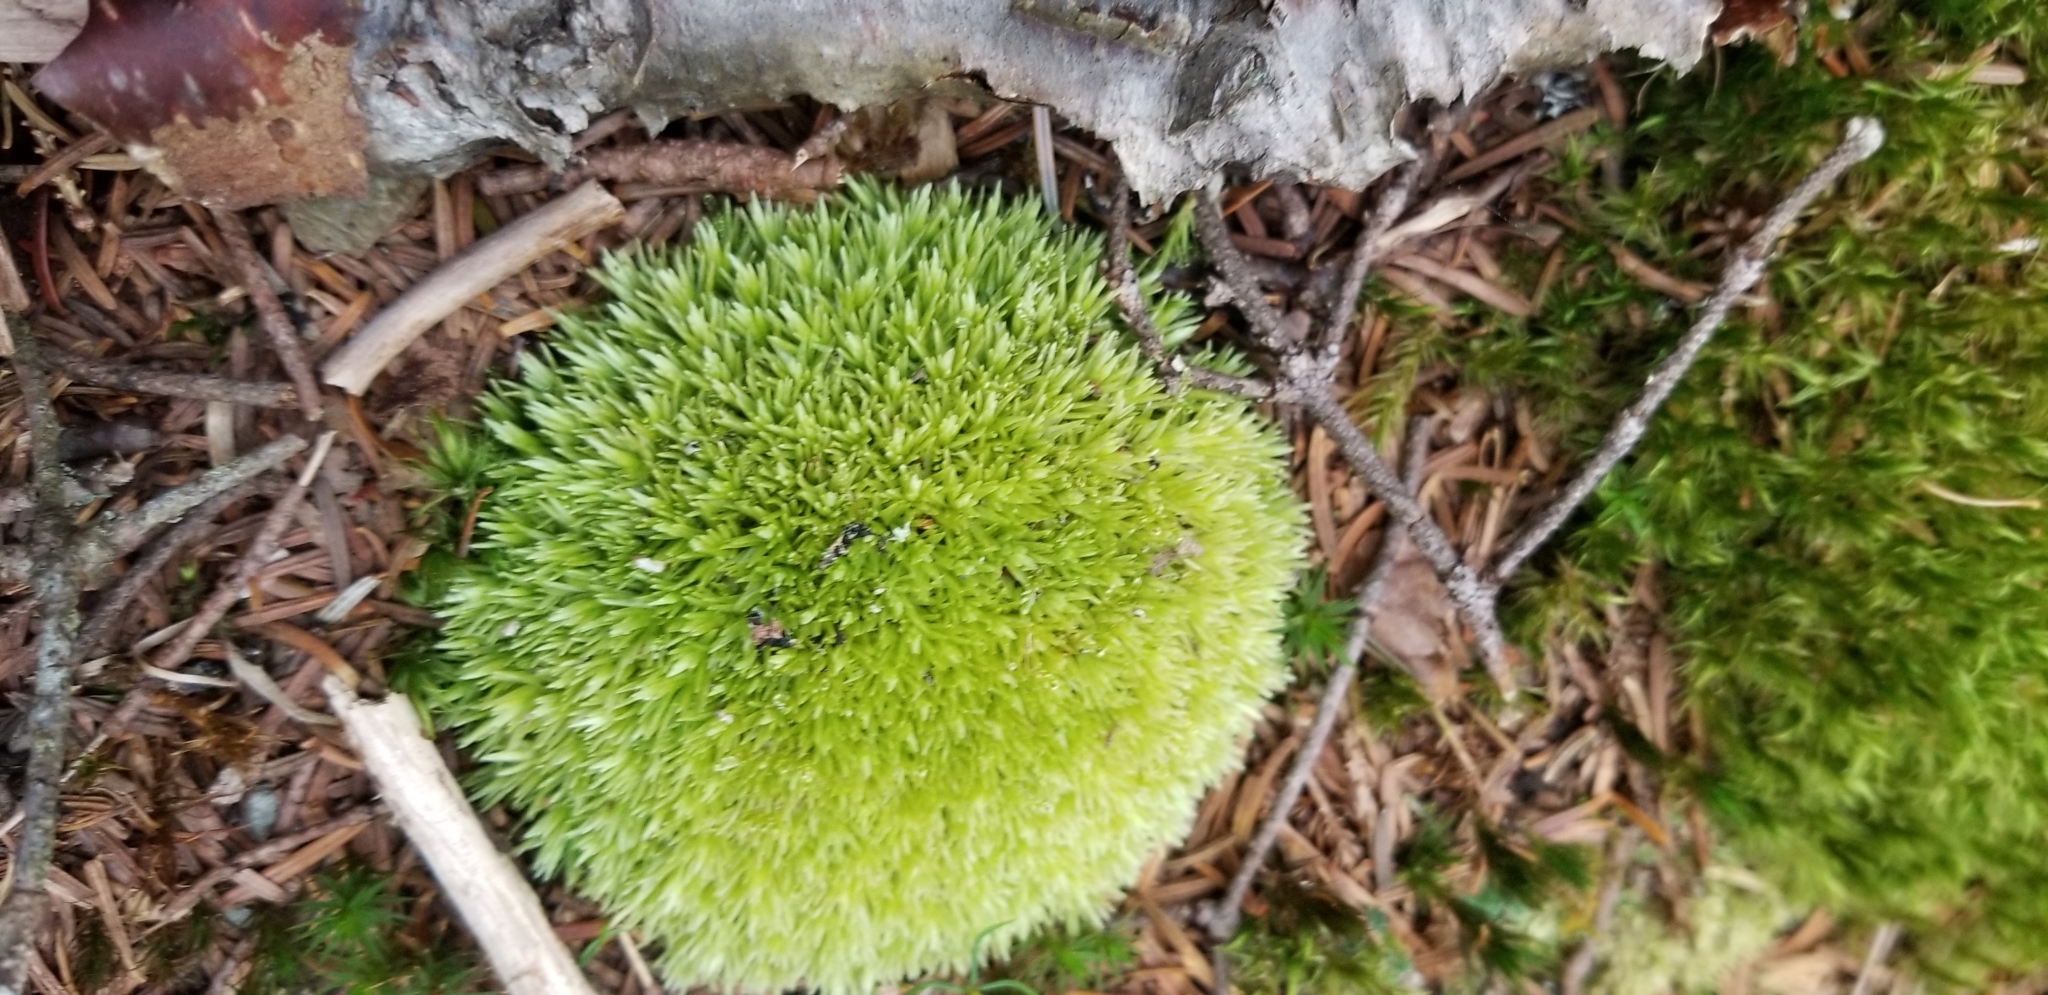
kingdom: Plantae
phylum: Bryophyta
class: Bryopsida
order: Dicranales
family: Leucobryaceae
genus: Leucobryum
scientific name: Leucobryum glaucum
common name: Large white-moss
